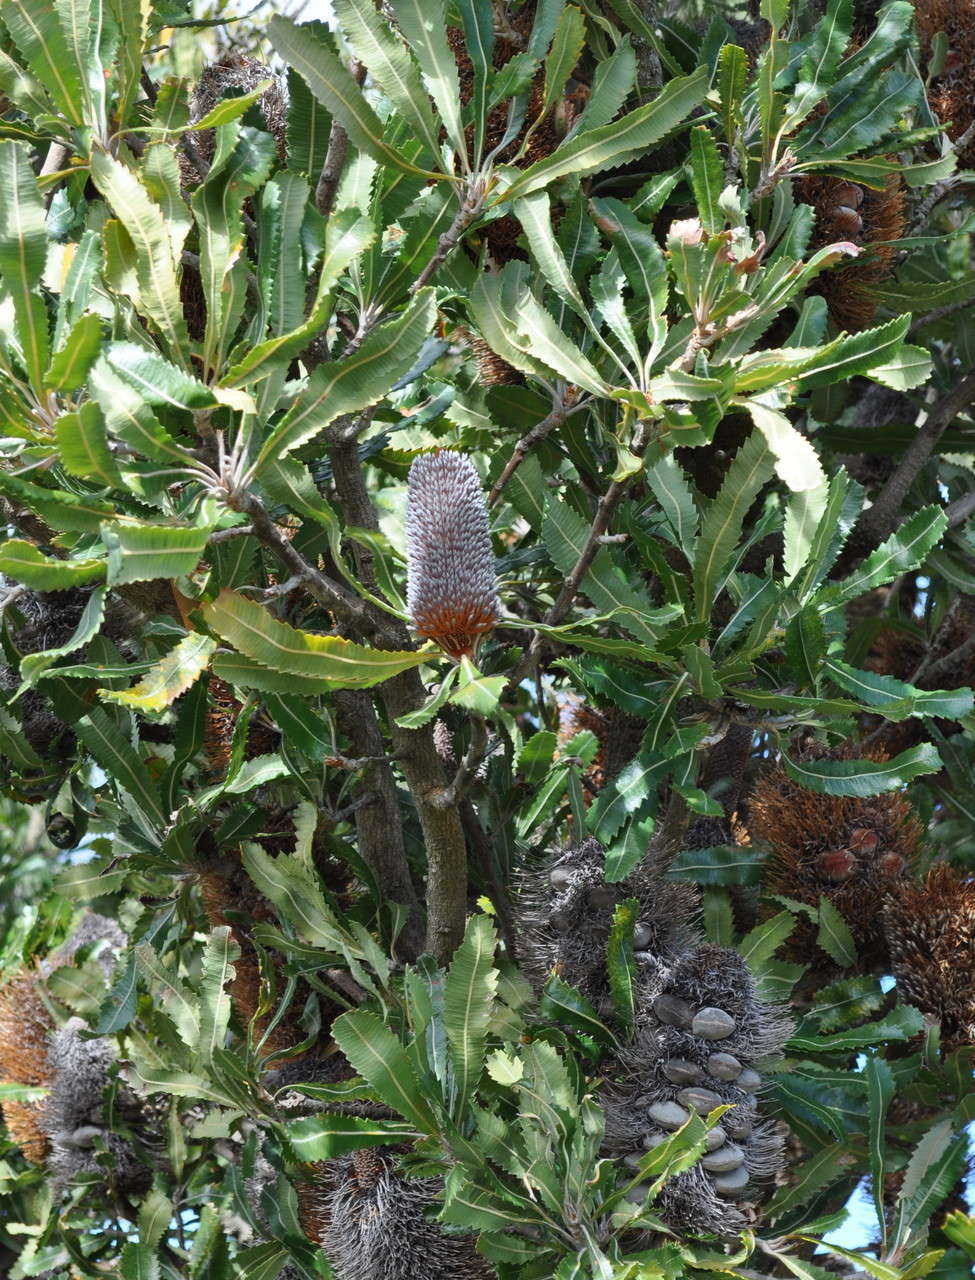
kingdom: Plantae
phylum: Tracheophyta
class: Magnoliopsida
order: Proteales
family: Proteaceae
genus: Banksia
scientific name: Banksia serrata
